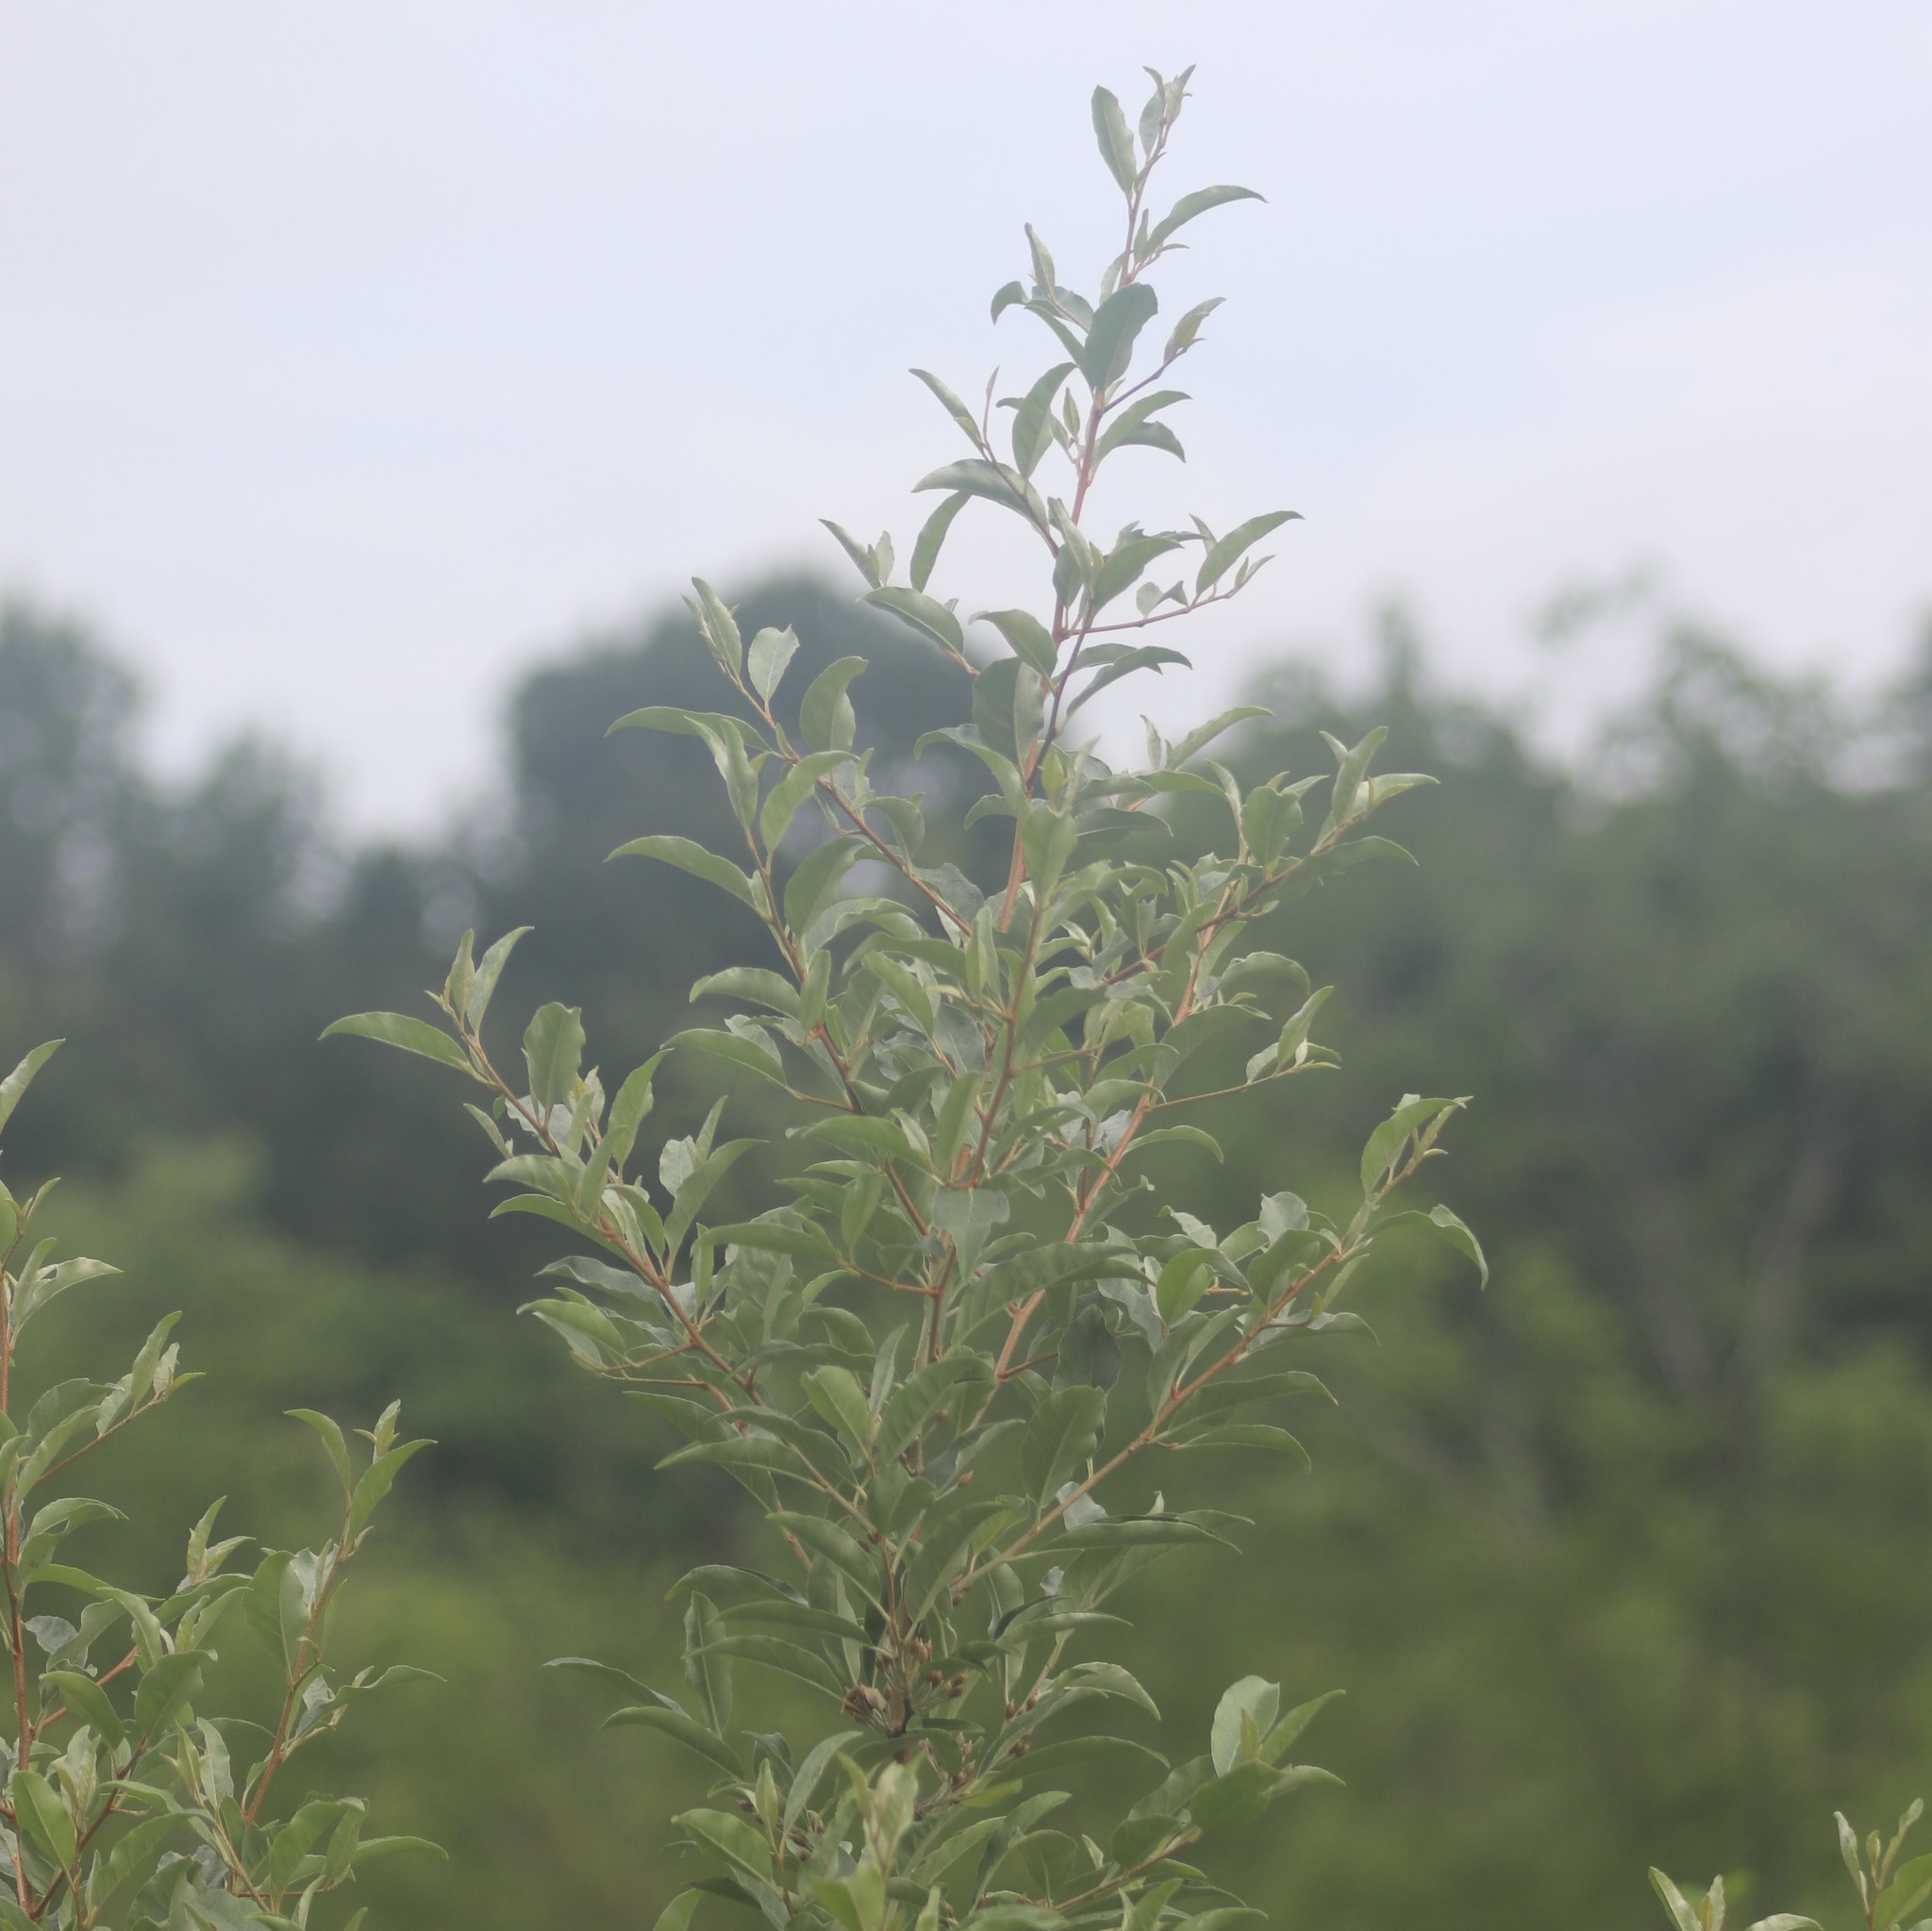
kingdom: Plantae
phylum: Tracheophyta
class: Magnoliopsida
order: Rosales
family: Elaeagnaceae
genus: Elaeagnus
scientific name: Elaeagnus umbellata
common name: Autumn olive
